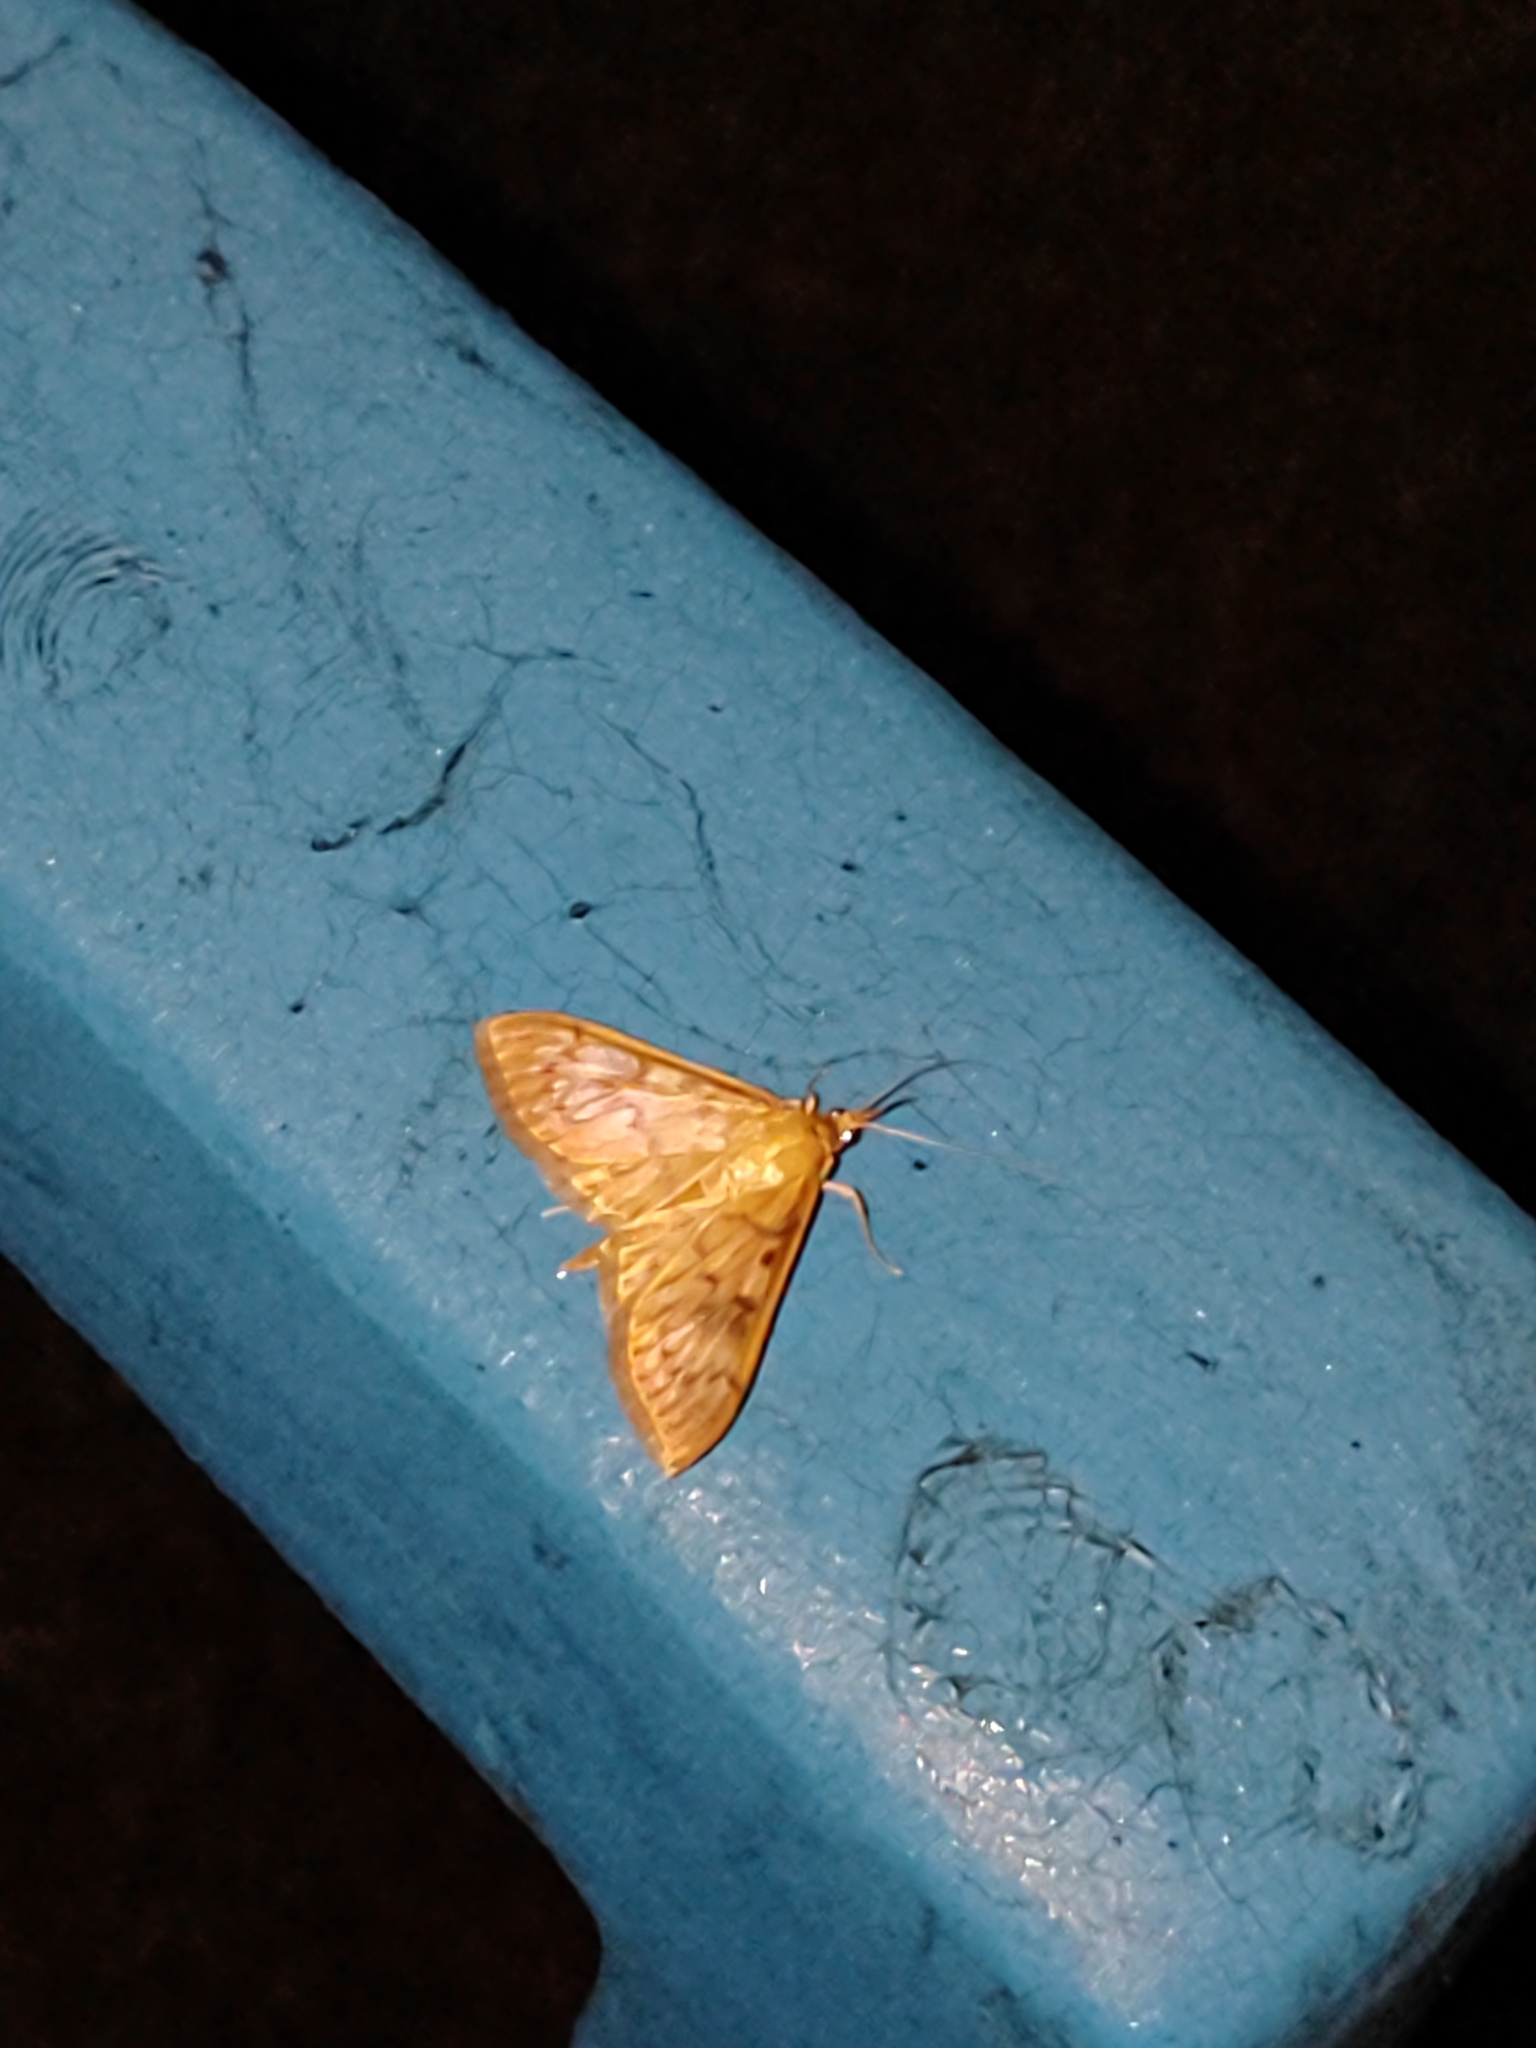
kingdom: Animalia
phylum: Arthropoda
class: Insecta
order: Lepidoptera
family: Crambidae
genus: Patania
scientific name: Patania ruralis
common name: Mother of pearl
